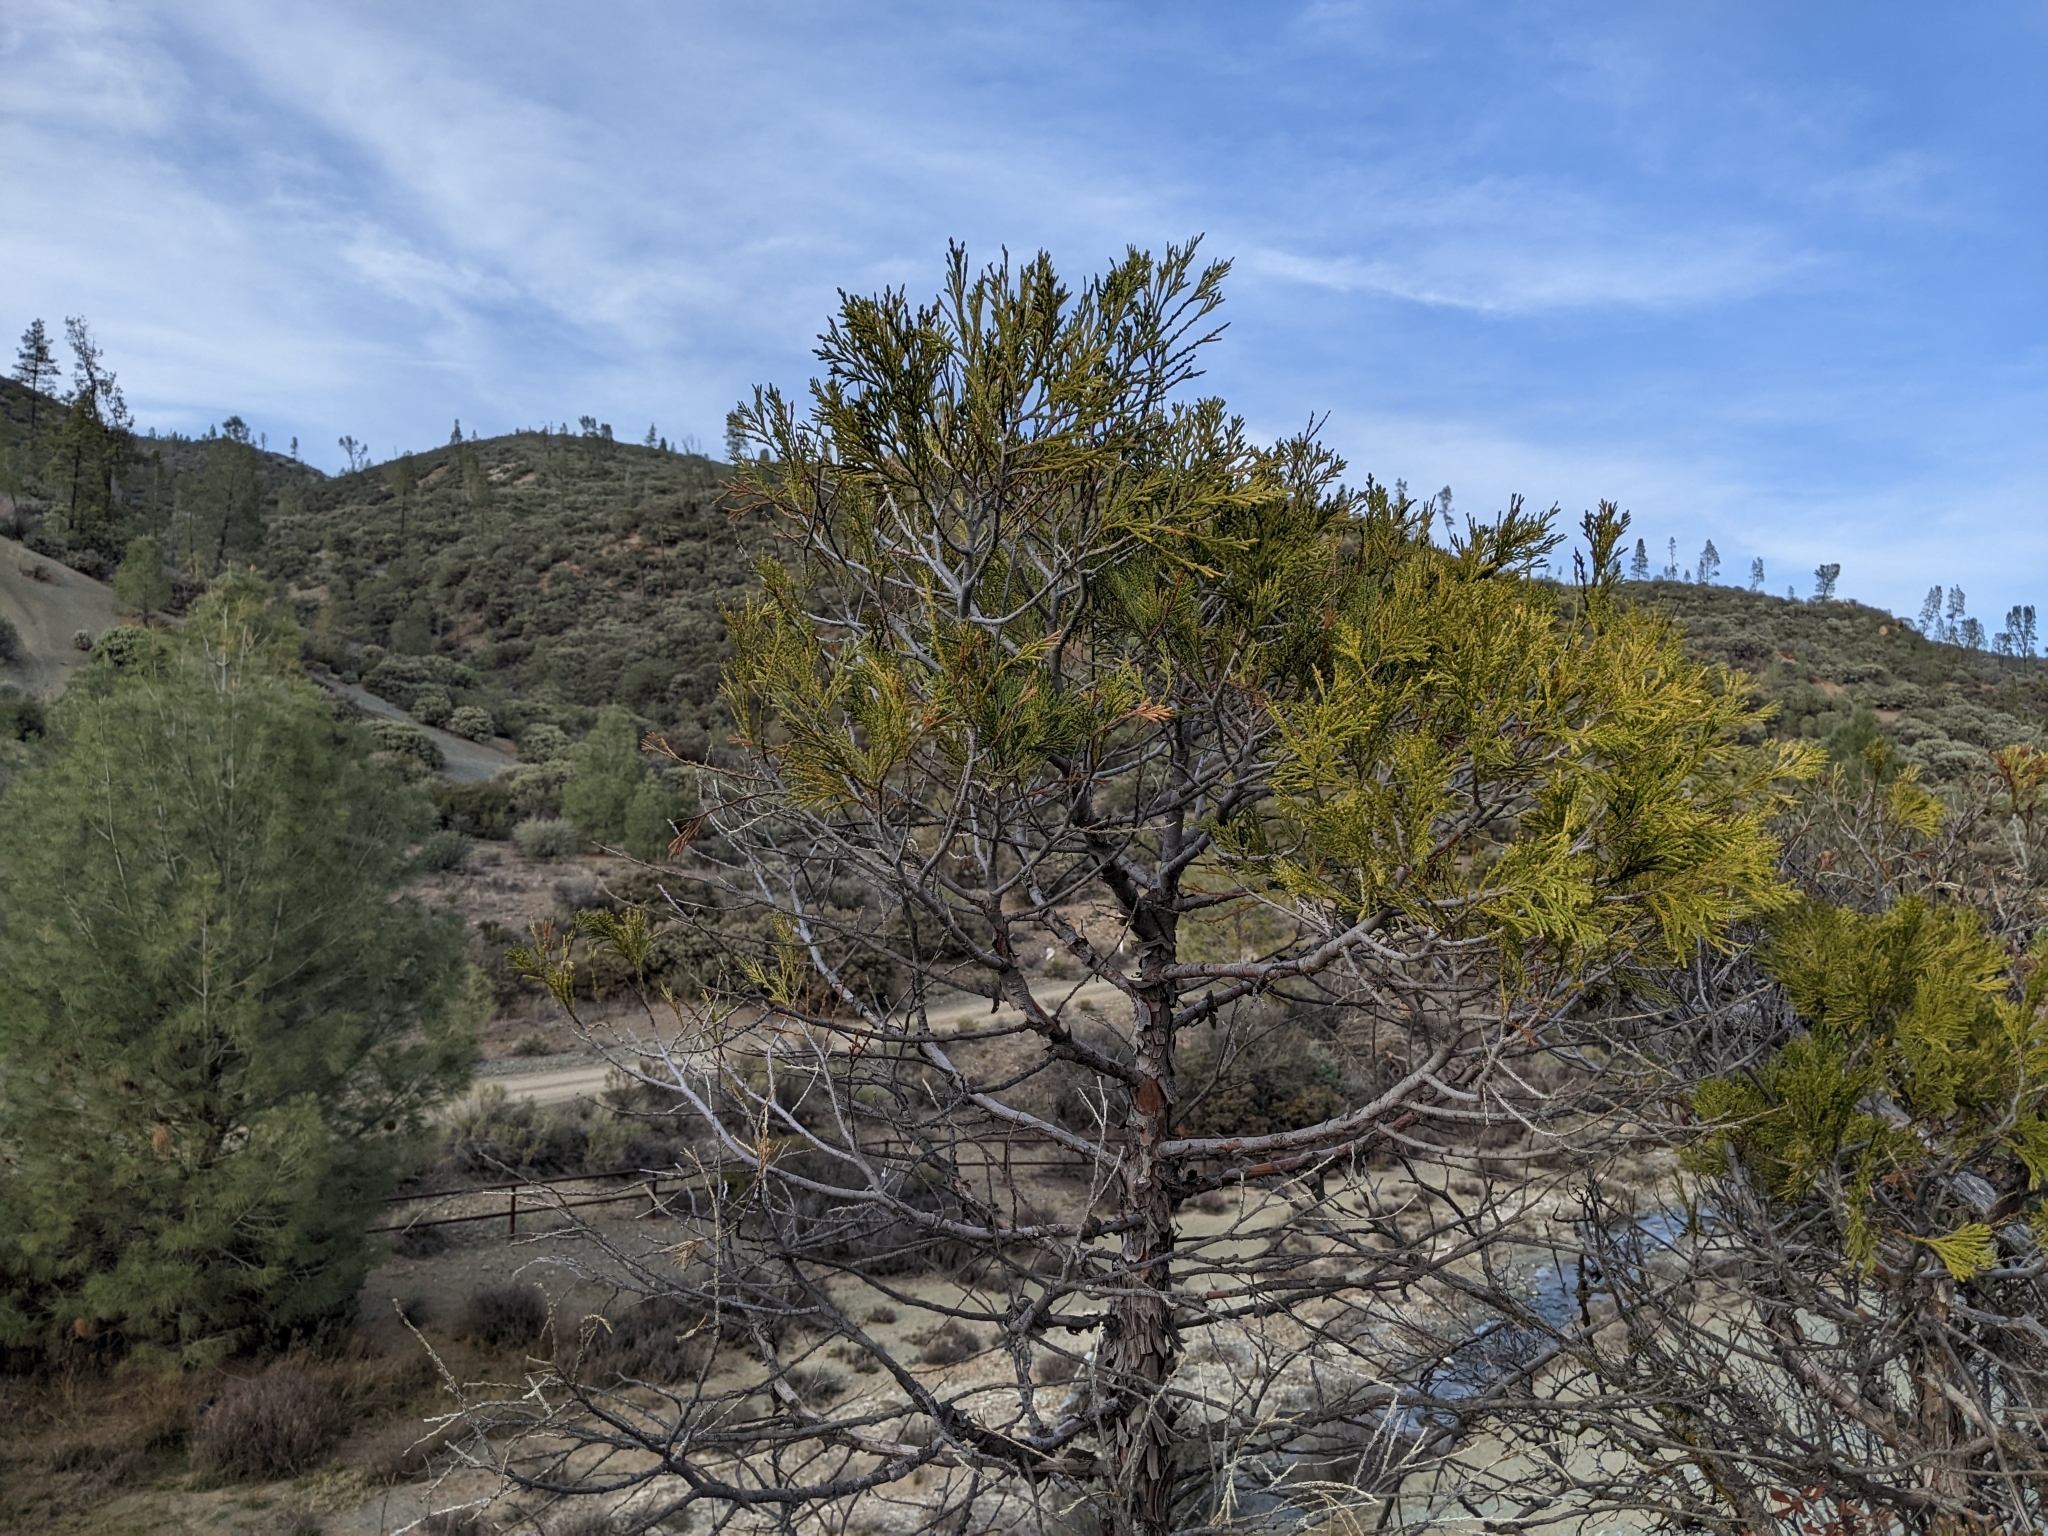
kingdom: Plantae
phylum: Tracheophyta
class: Pinopsida
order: Pinales
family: Cupressaceae
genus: Calocedrus
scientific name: Calocedrus decurrens
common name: Californian incense-cedar
